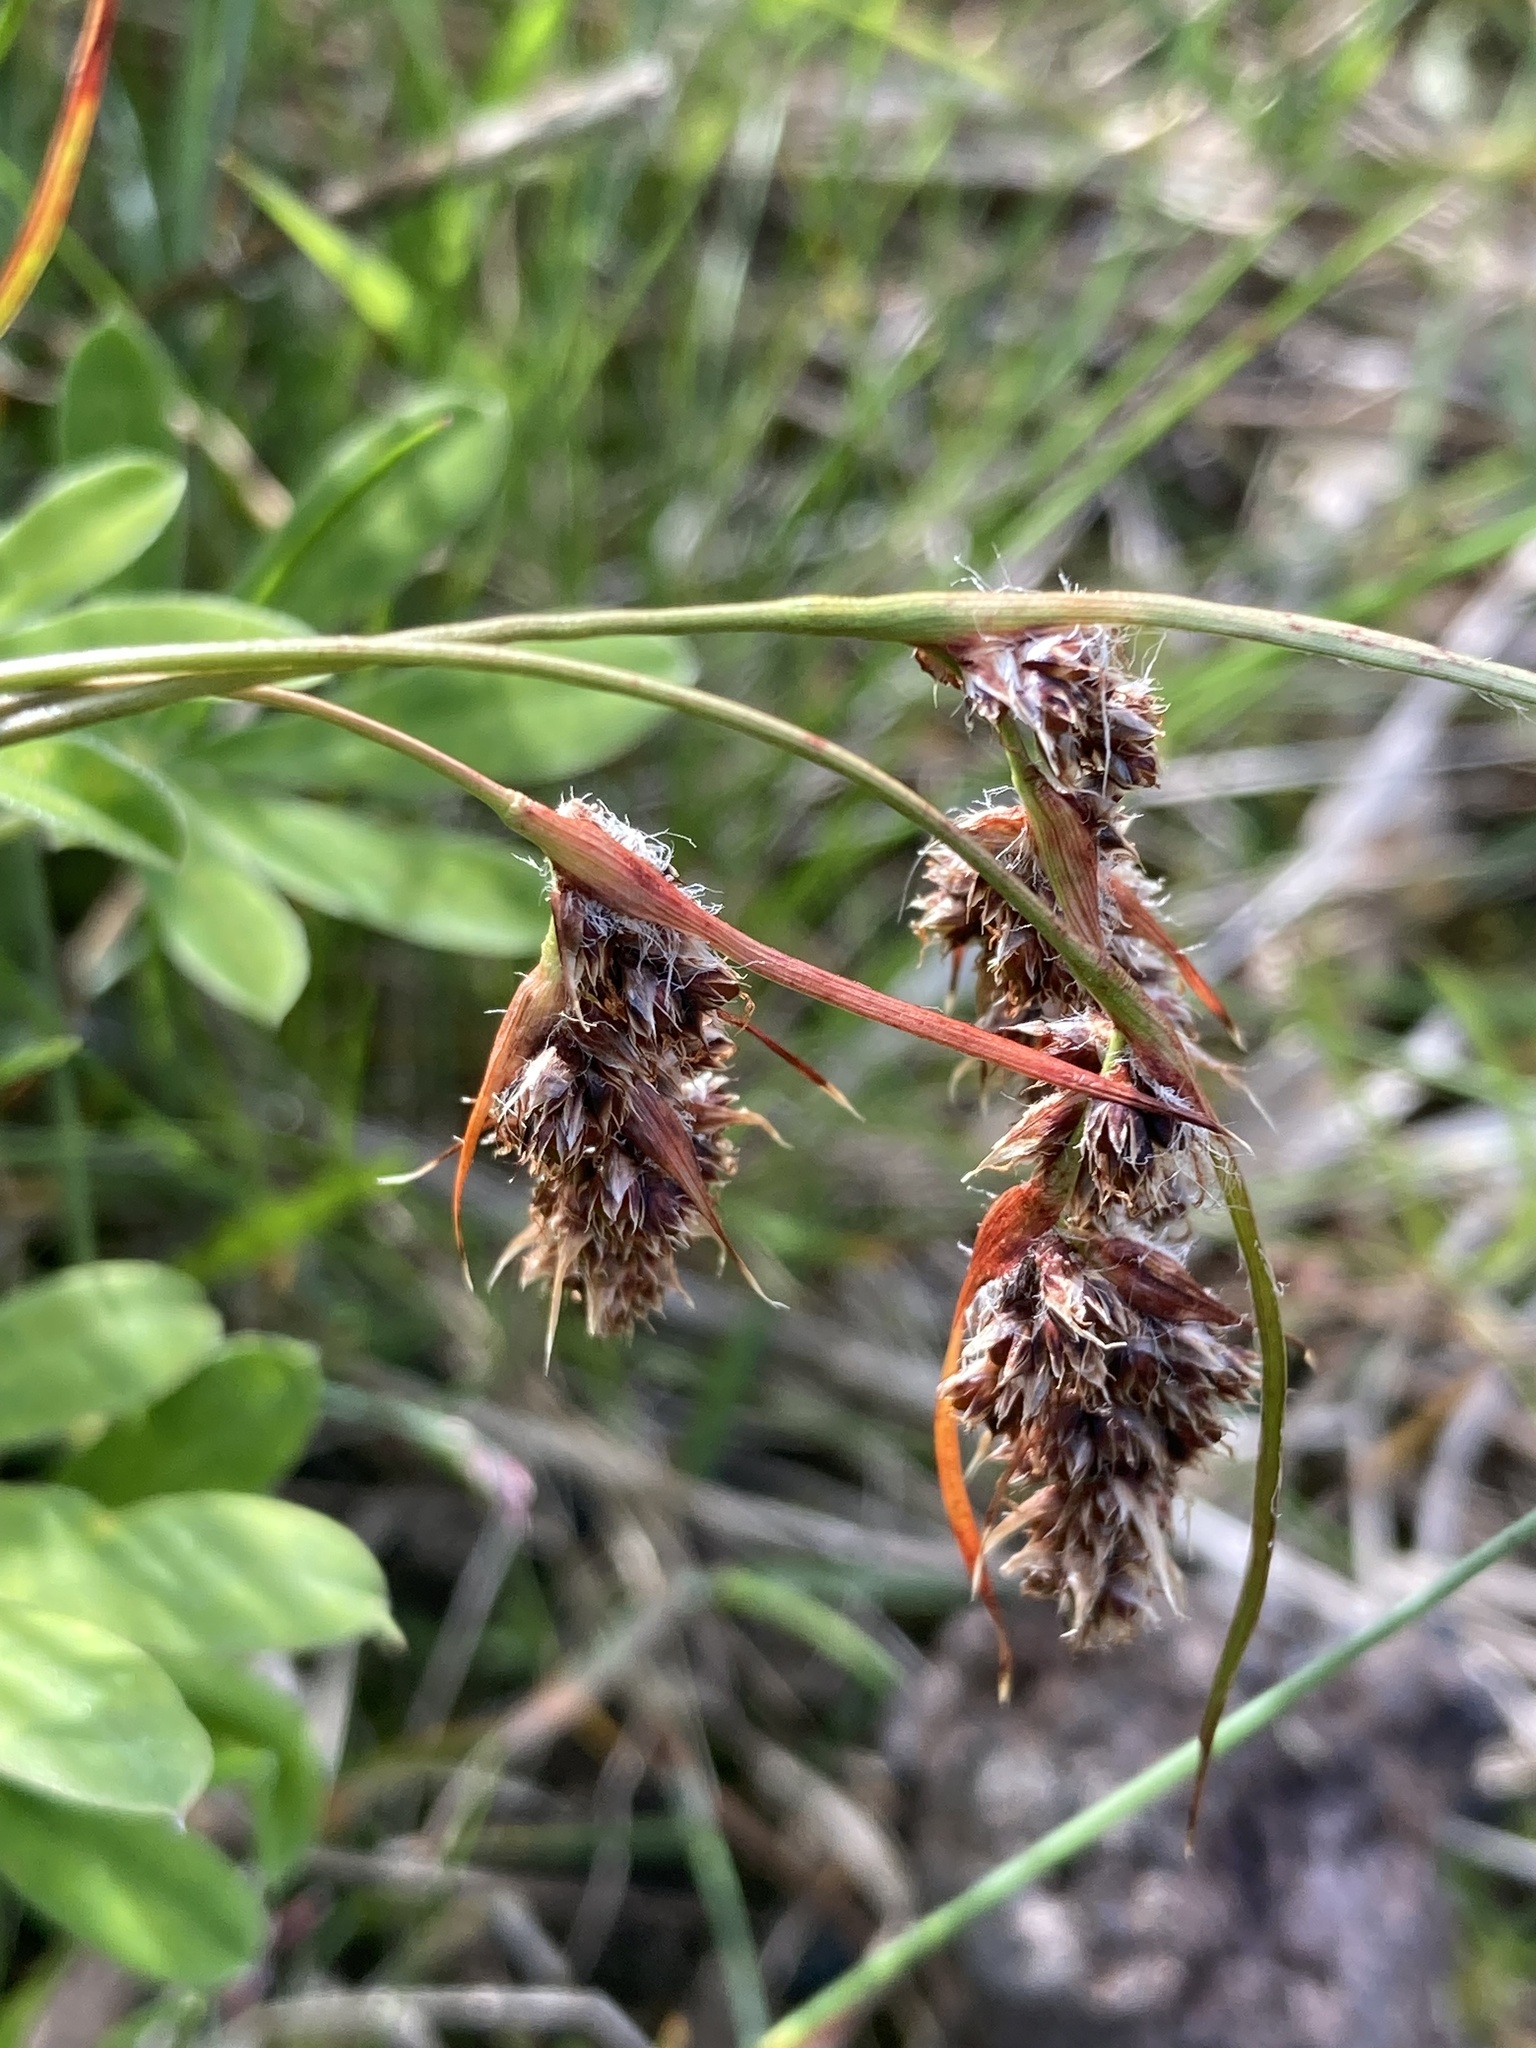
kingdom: Plantae
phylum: Tracheophyta
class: Liliopsida
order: Poales
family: Juncaceae
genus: Luzula
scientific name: Luzula spicata
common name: Spiked wood-rush
